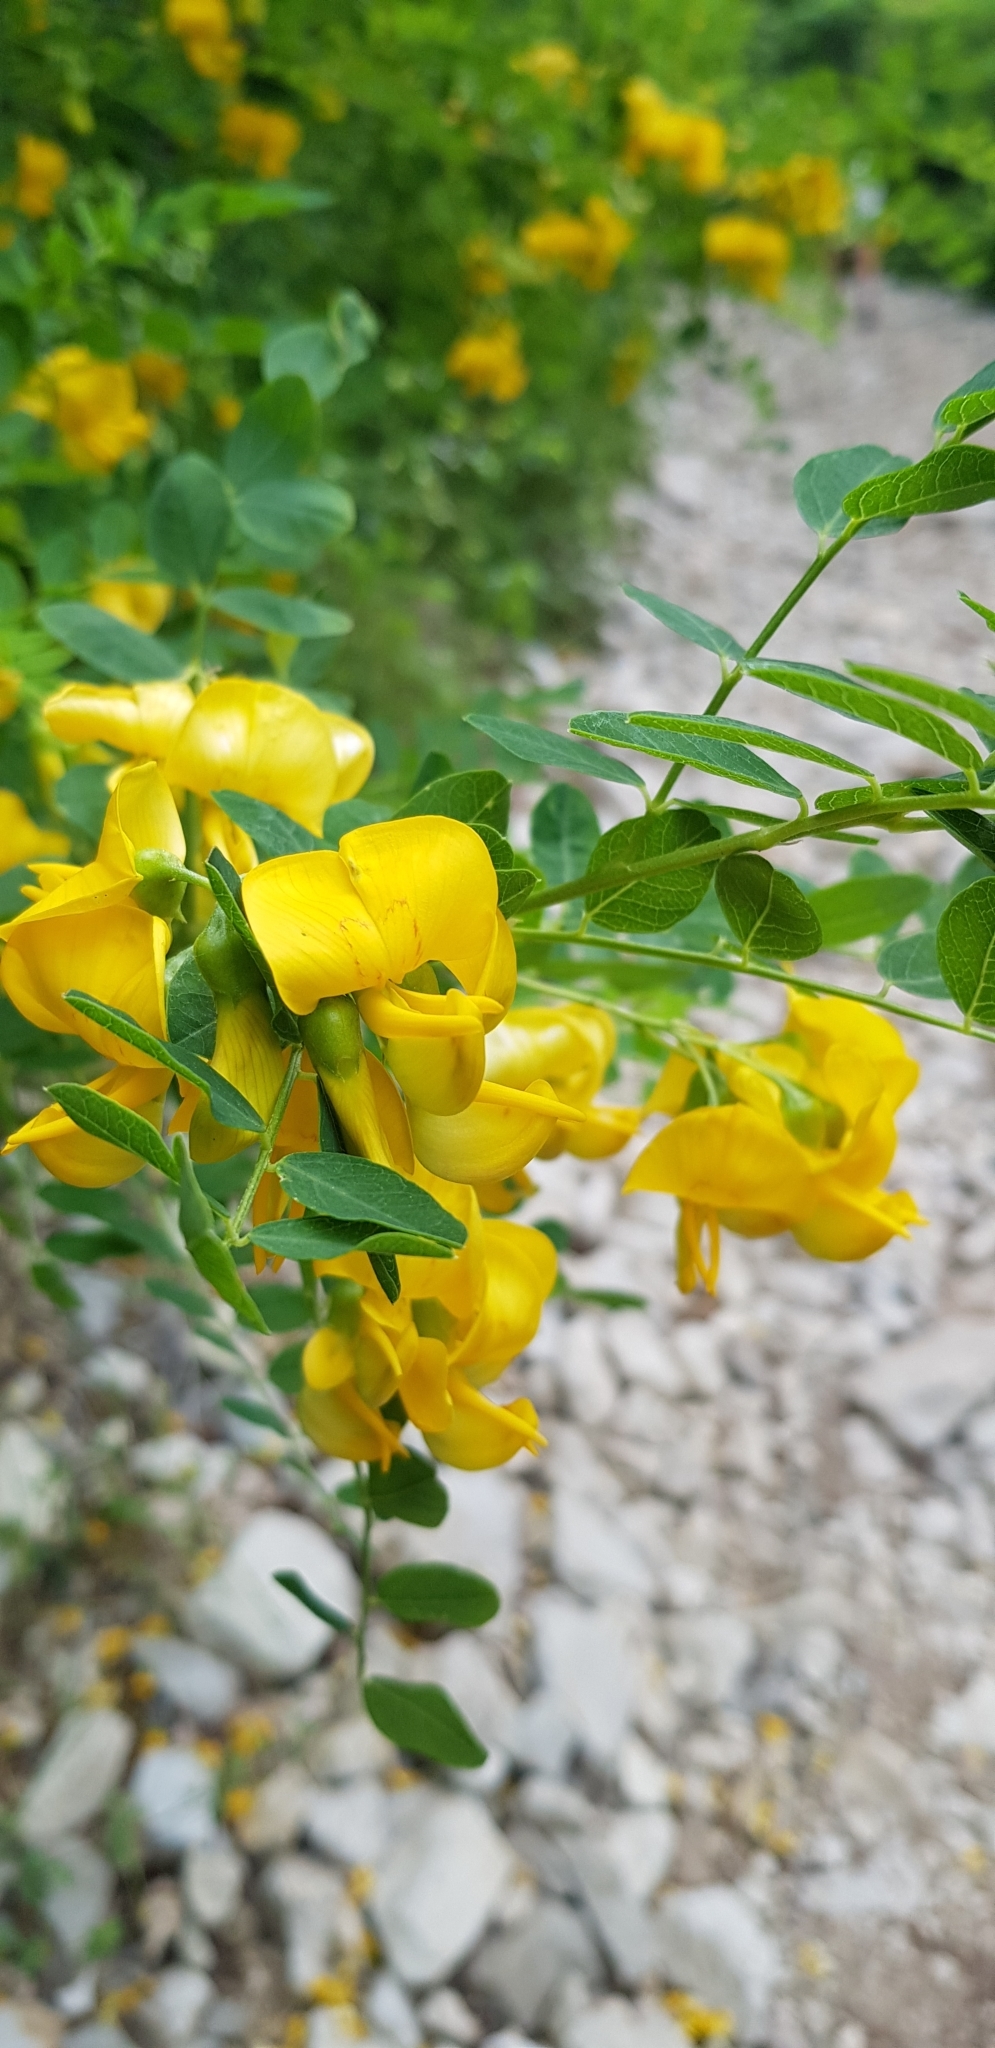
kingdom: Plantae
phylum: Tracheophyta
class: Magnoliopsida
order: Fabales
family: Fabaceae
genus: Colutea
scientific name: Colutea cilicica
